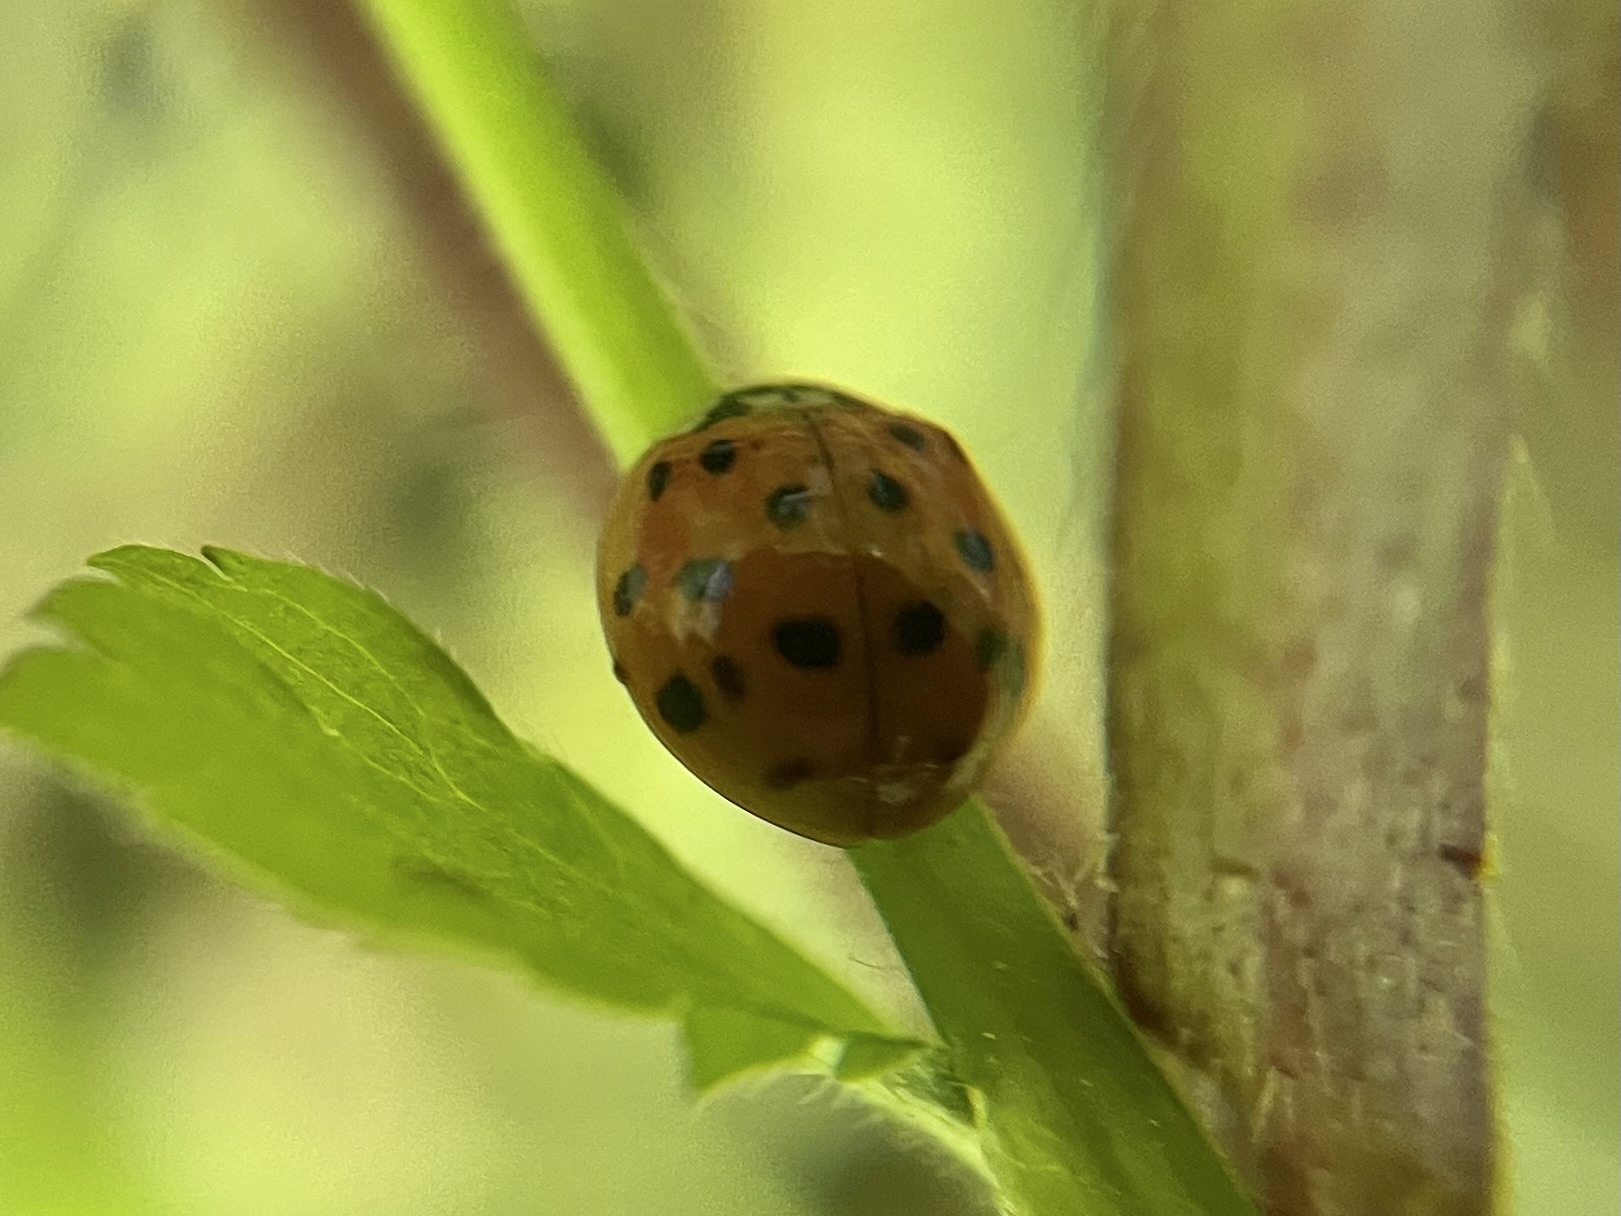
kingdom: Animalia
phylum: Arthropoda
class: Insecta
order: Coleoptera
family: Coccinellidae
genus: Harmonia
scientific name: Harmonia axyridis
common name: Harlequin ladybird
